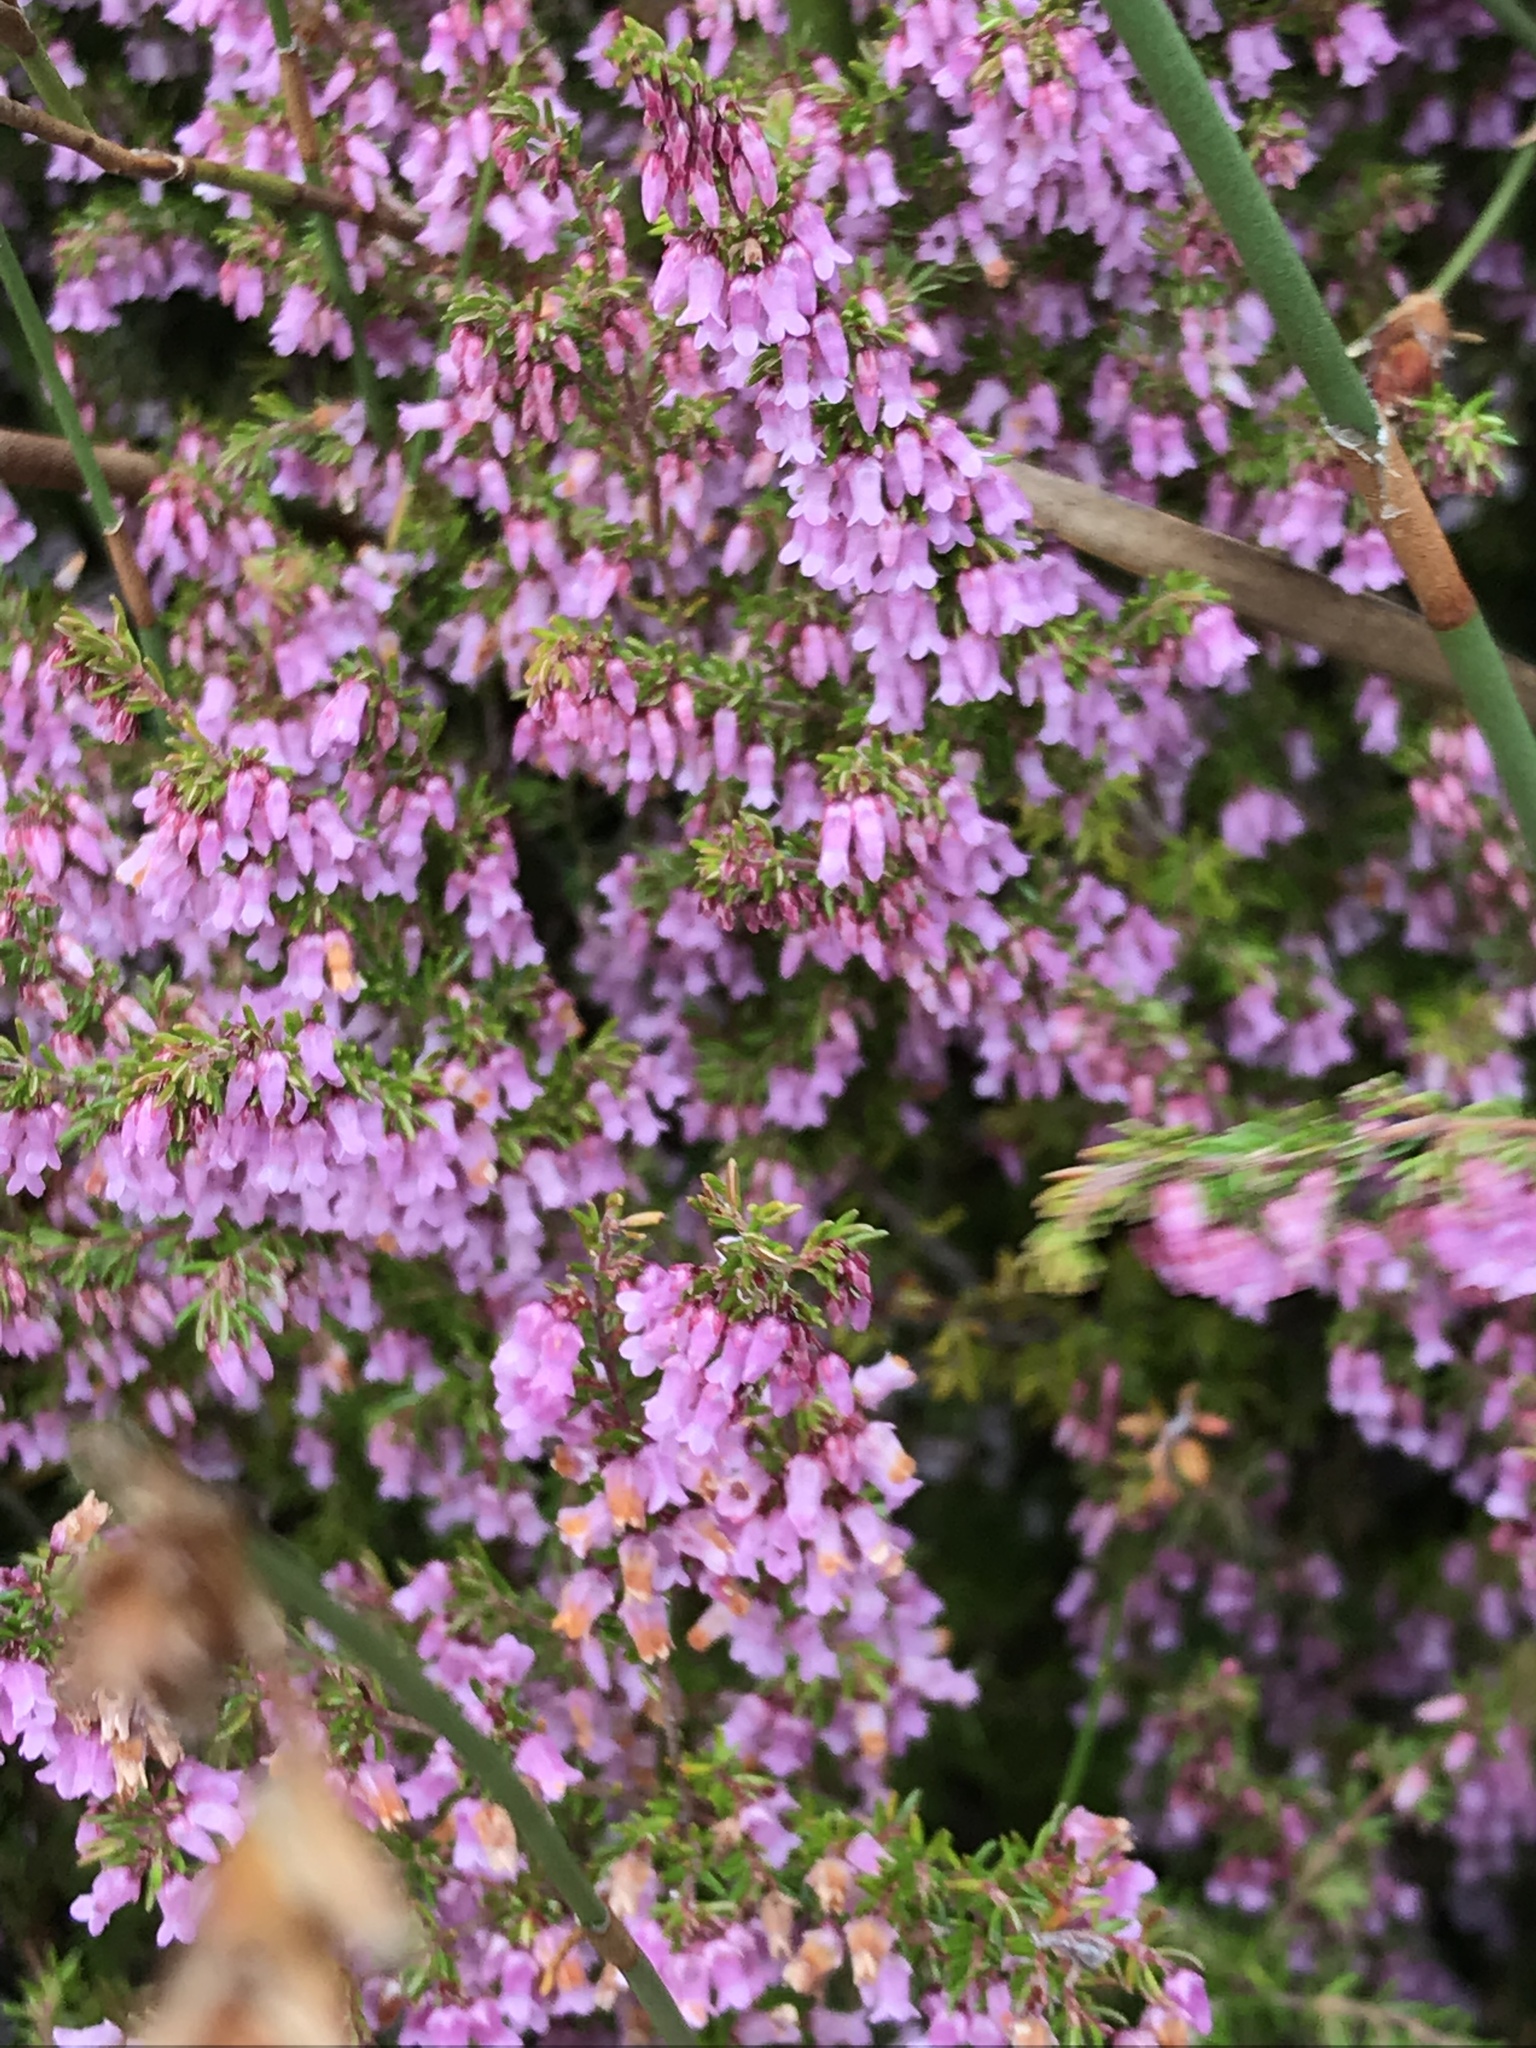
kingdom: Plantae
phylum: Tracheophyta
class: Magnoliopsida
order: Ericales
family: Ericaceae
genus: Erica
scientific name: Erica intervallaris
